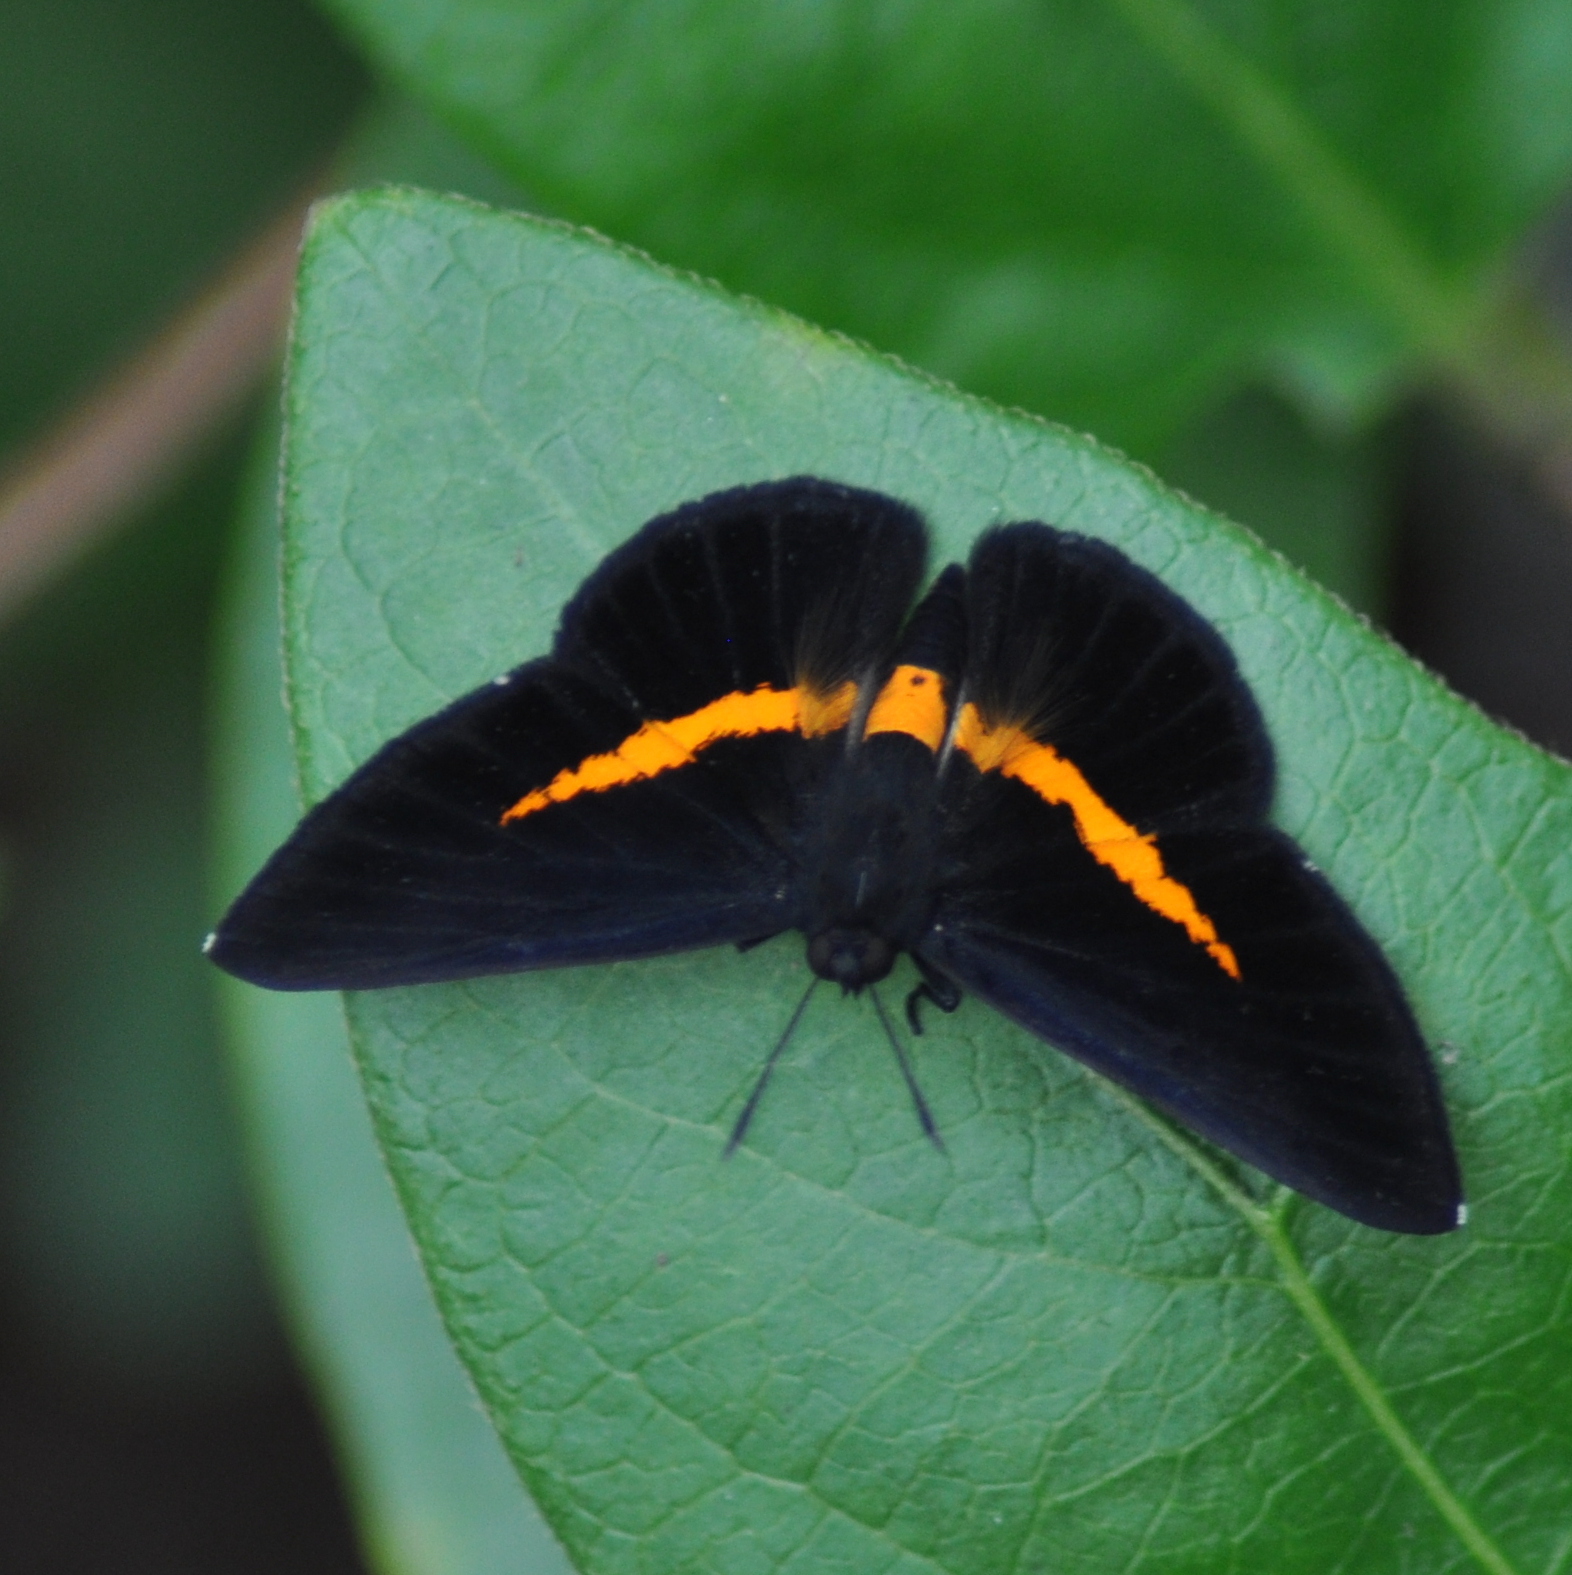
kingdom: Animalia
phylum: Arthropoda
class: Insecta
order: Lepidoptera
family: Riodinidae
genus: Pirascca
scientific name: Pirascca sagaris
